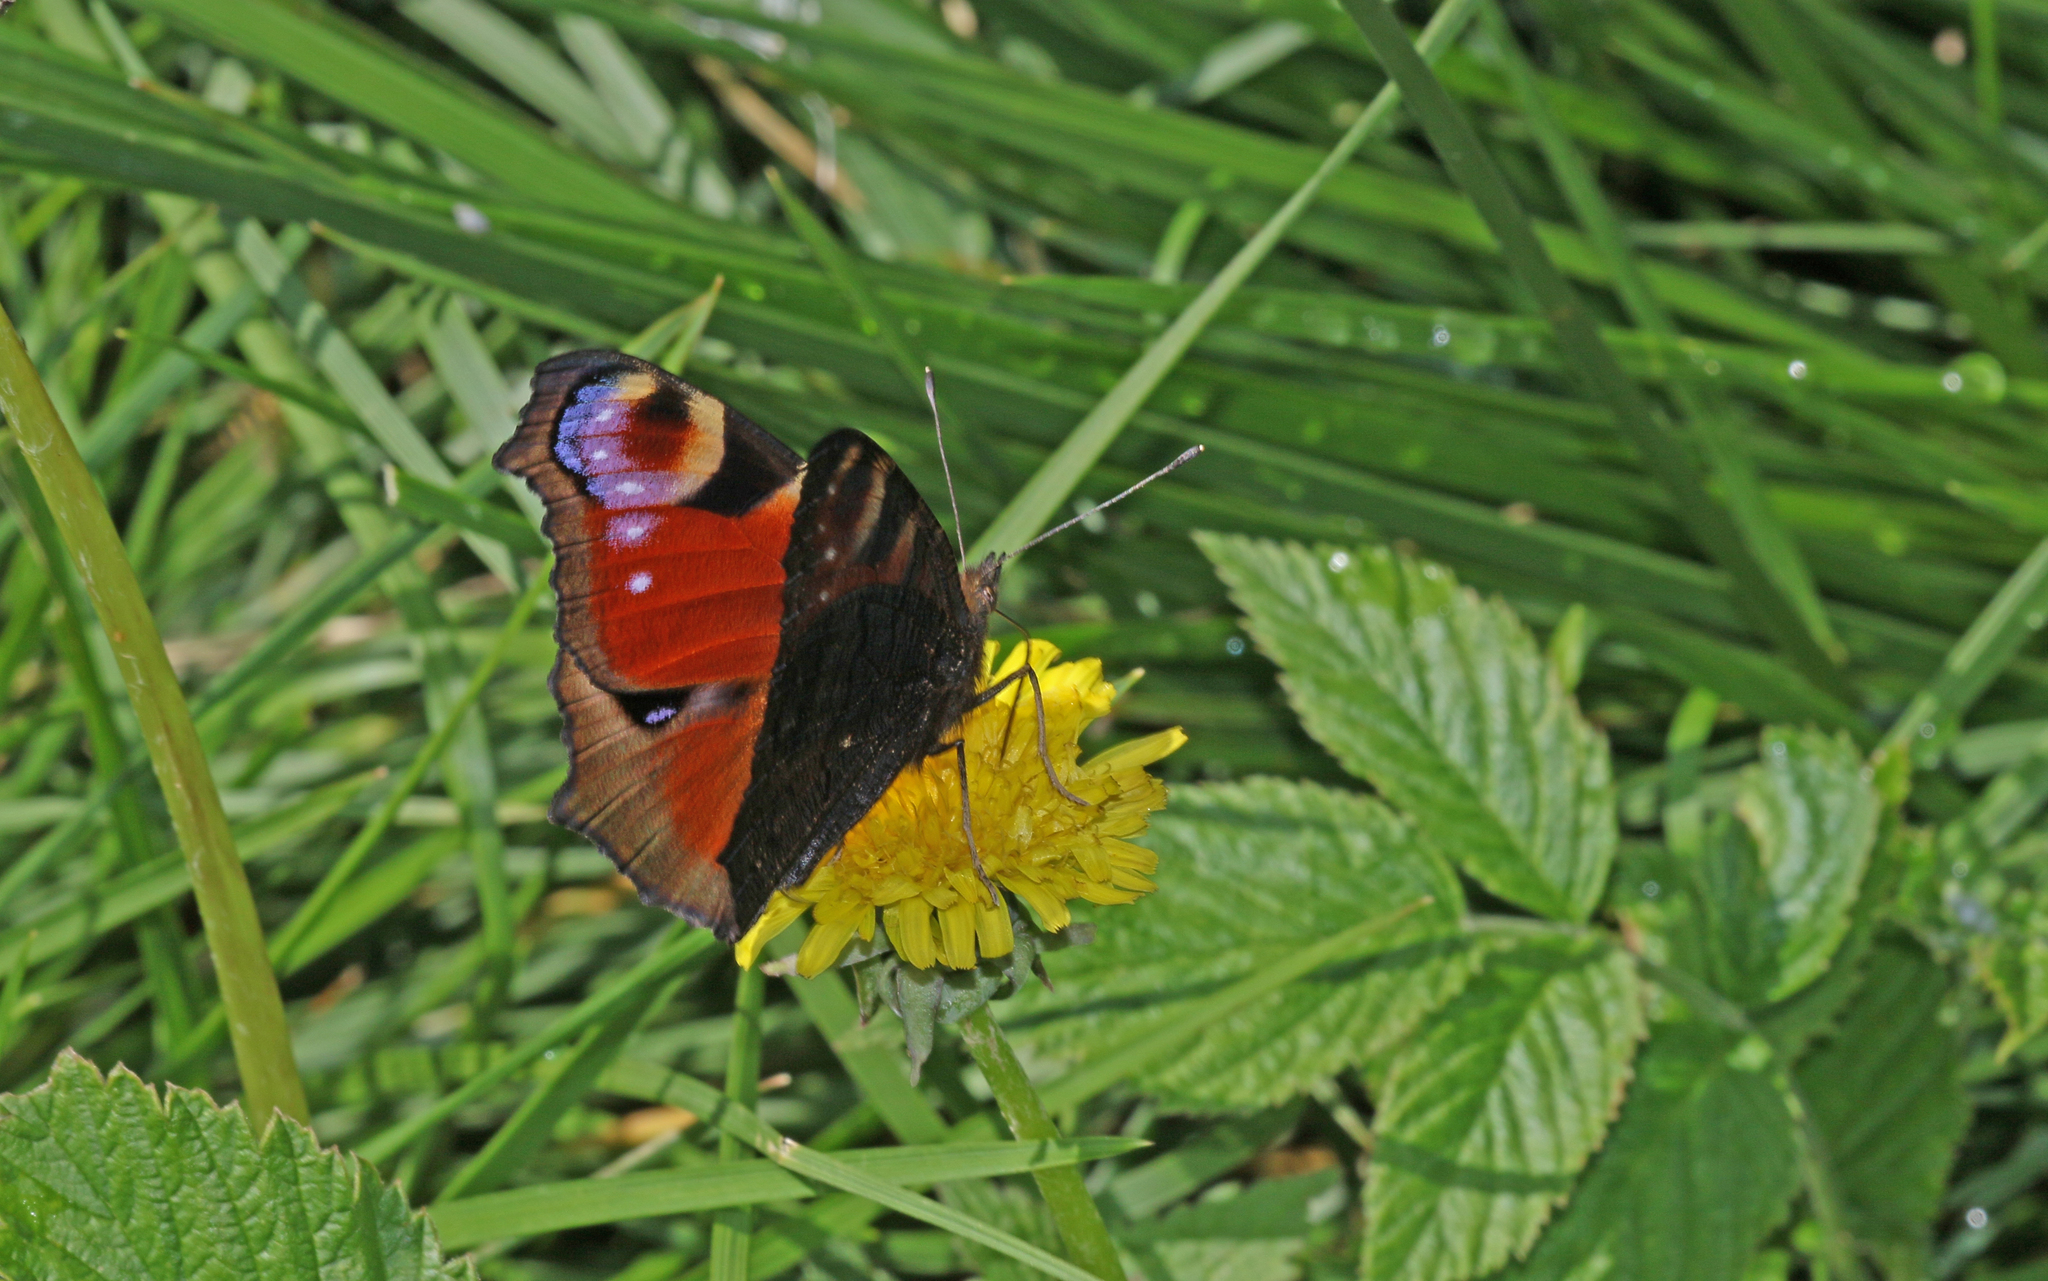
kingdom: Animalia
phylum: Arthropoda
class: Insecta
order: Lepidoptera
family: Nymphalidae
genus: Aglais
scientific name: Aglais io
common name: Peacock
